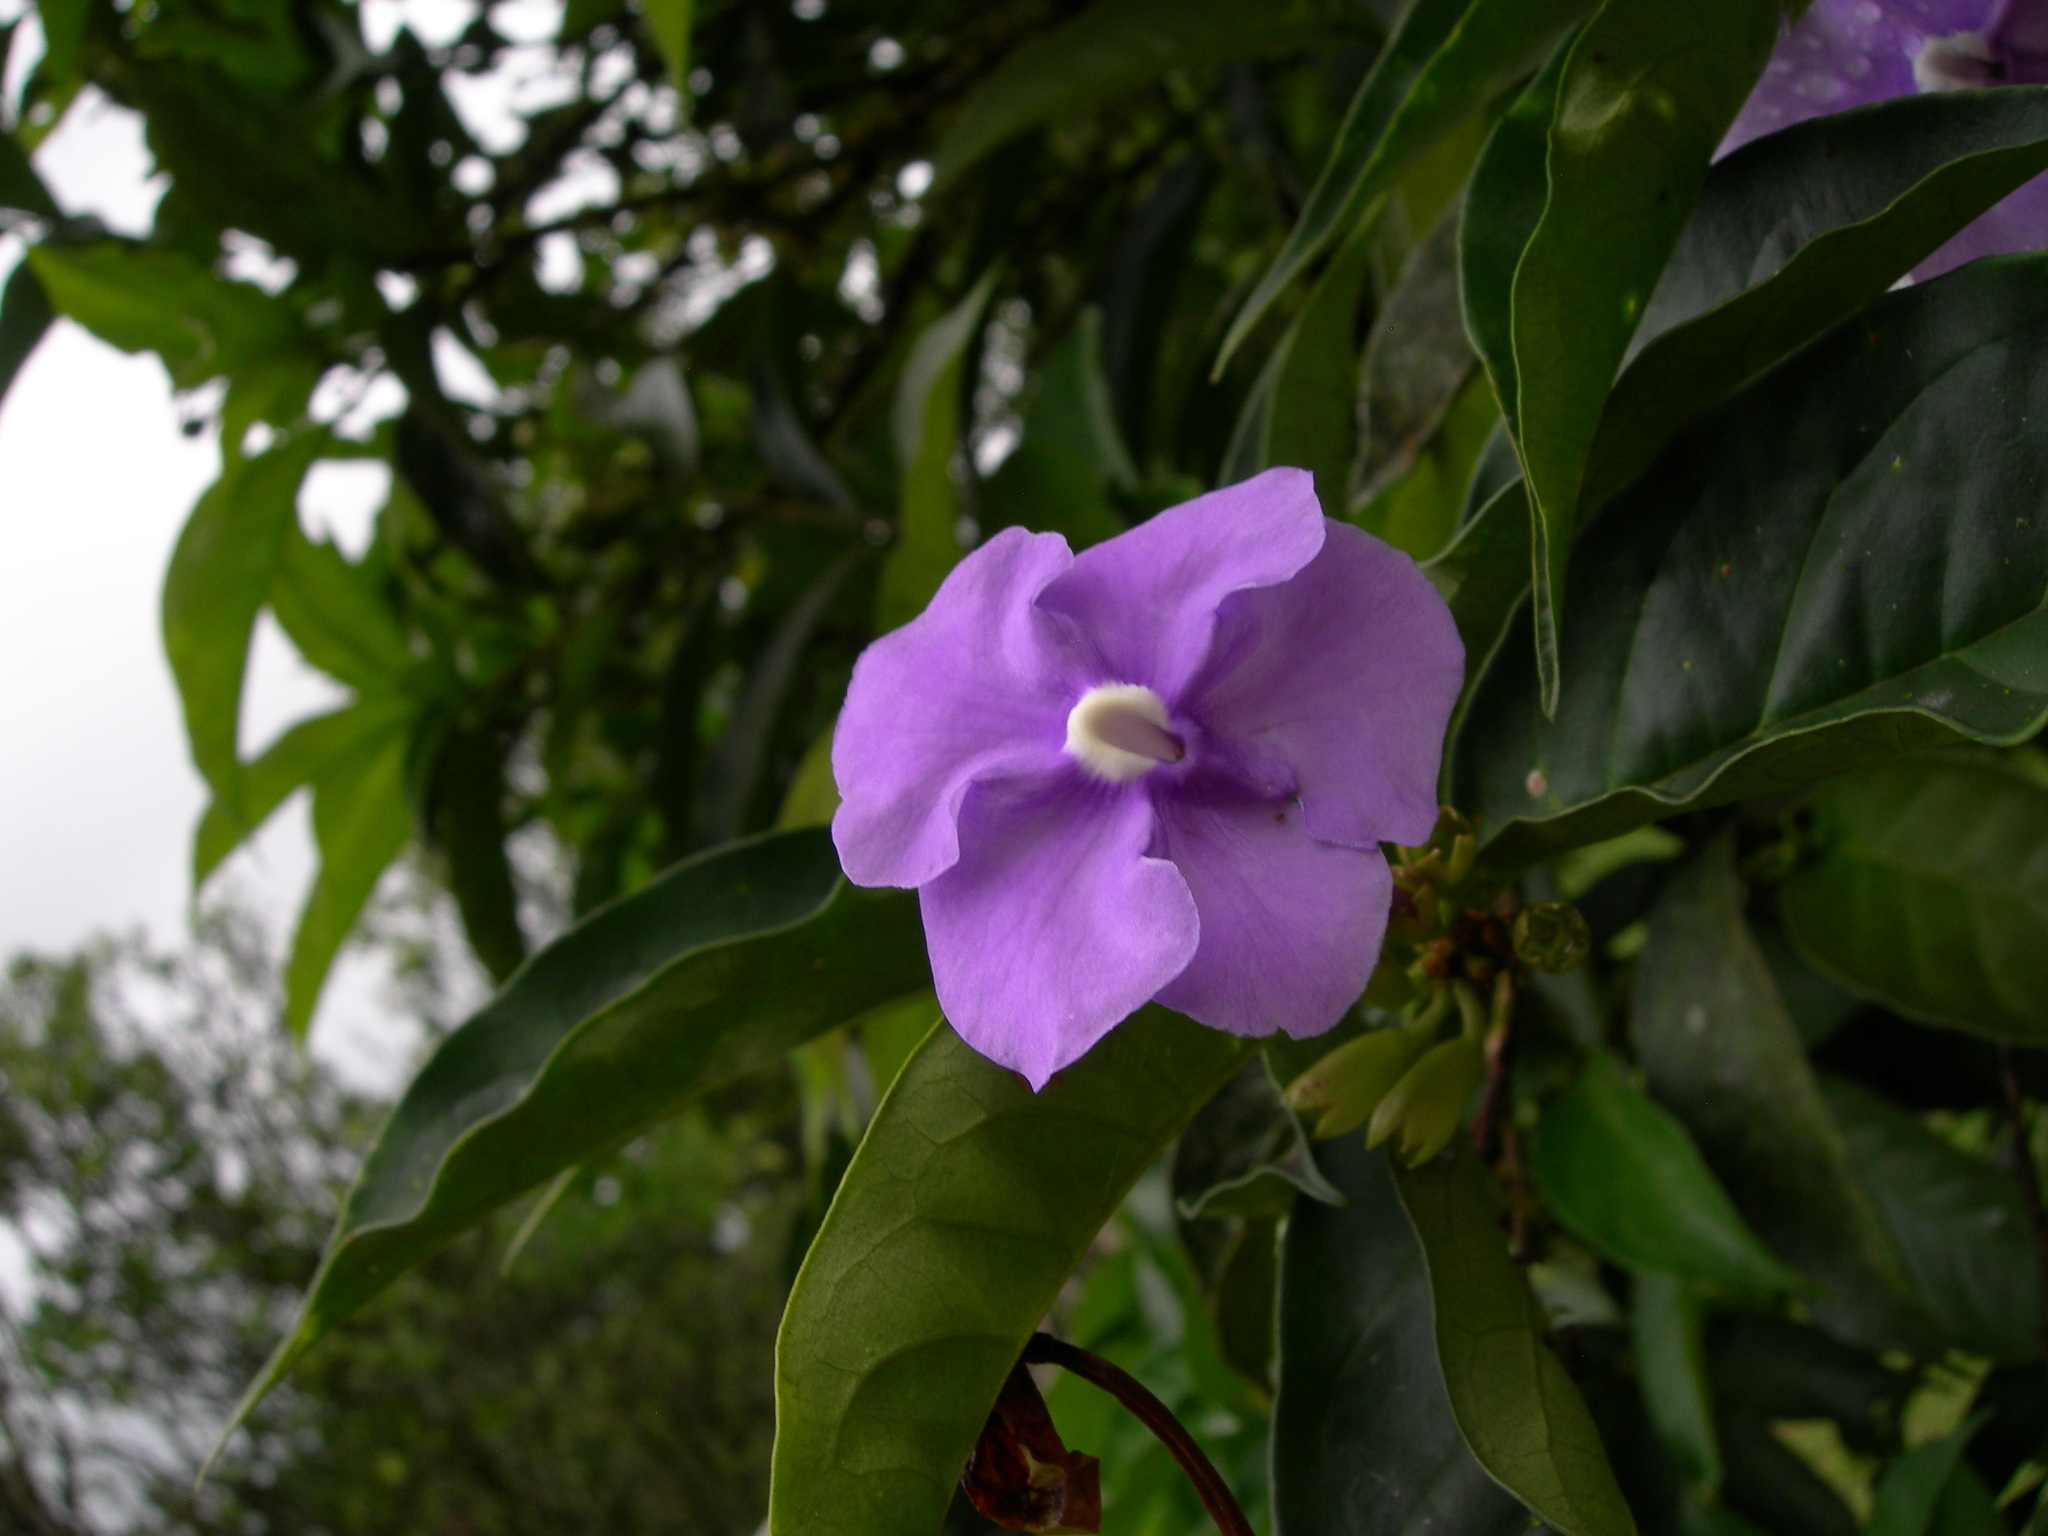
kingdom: Plantae
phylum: Tracheophyta
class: Magnoliopsida
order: Solanales
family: Solanaceae
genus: Brunfelsia
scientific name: Brunfelsia pauciflora
